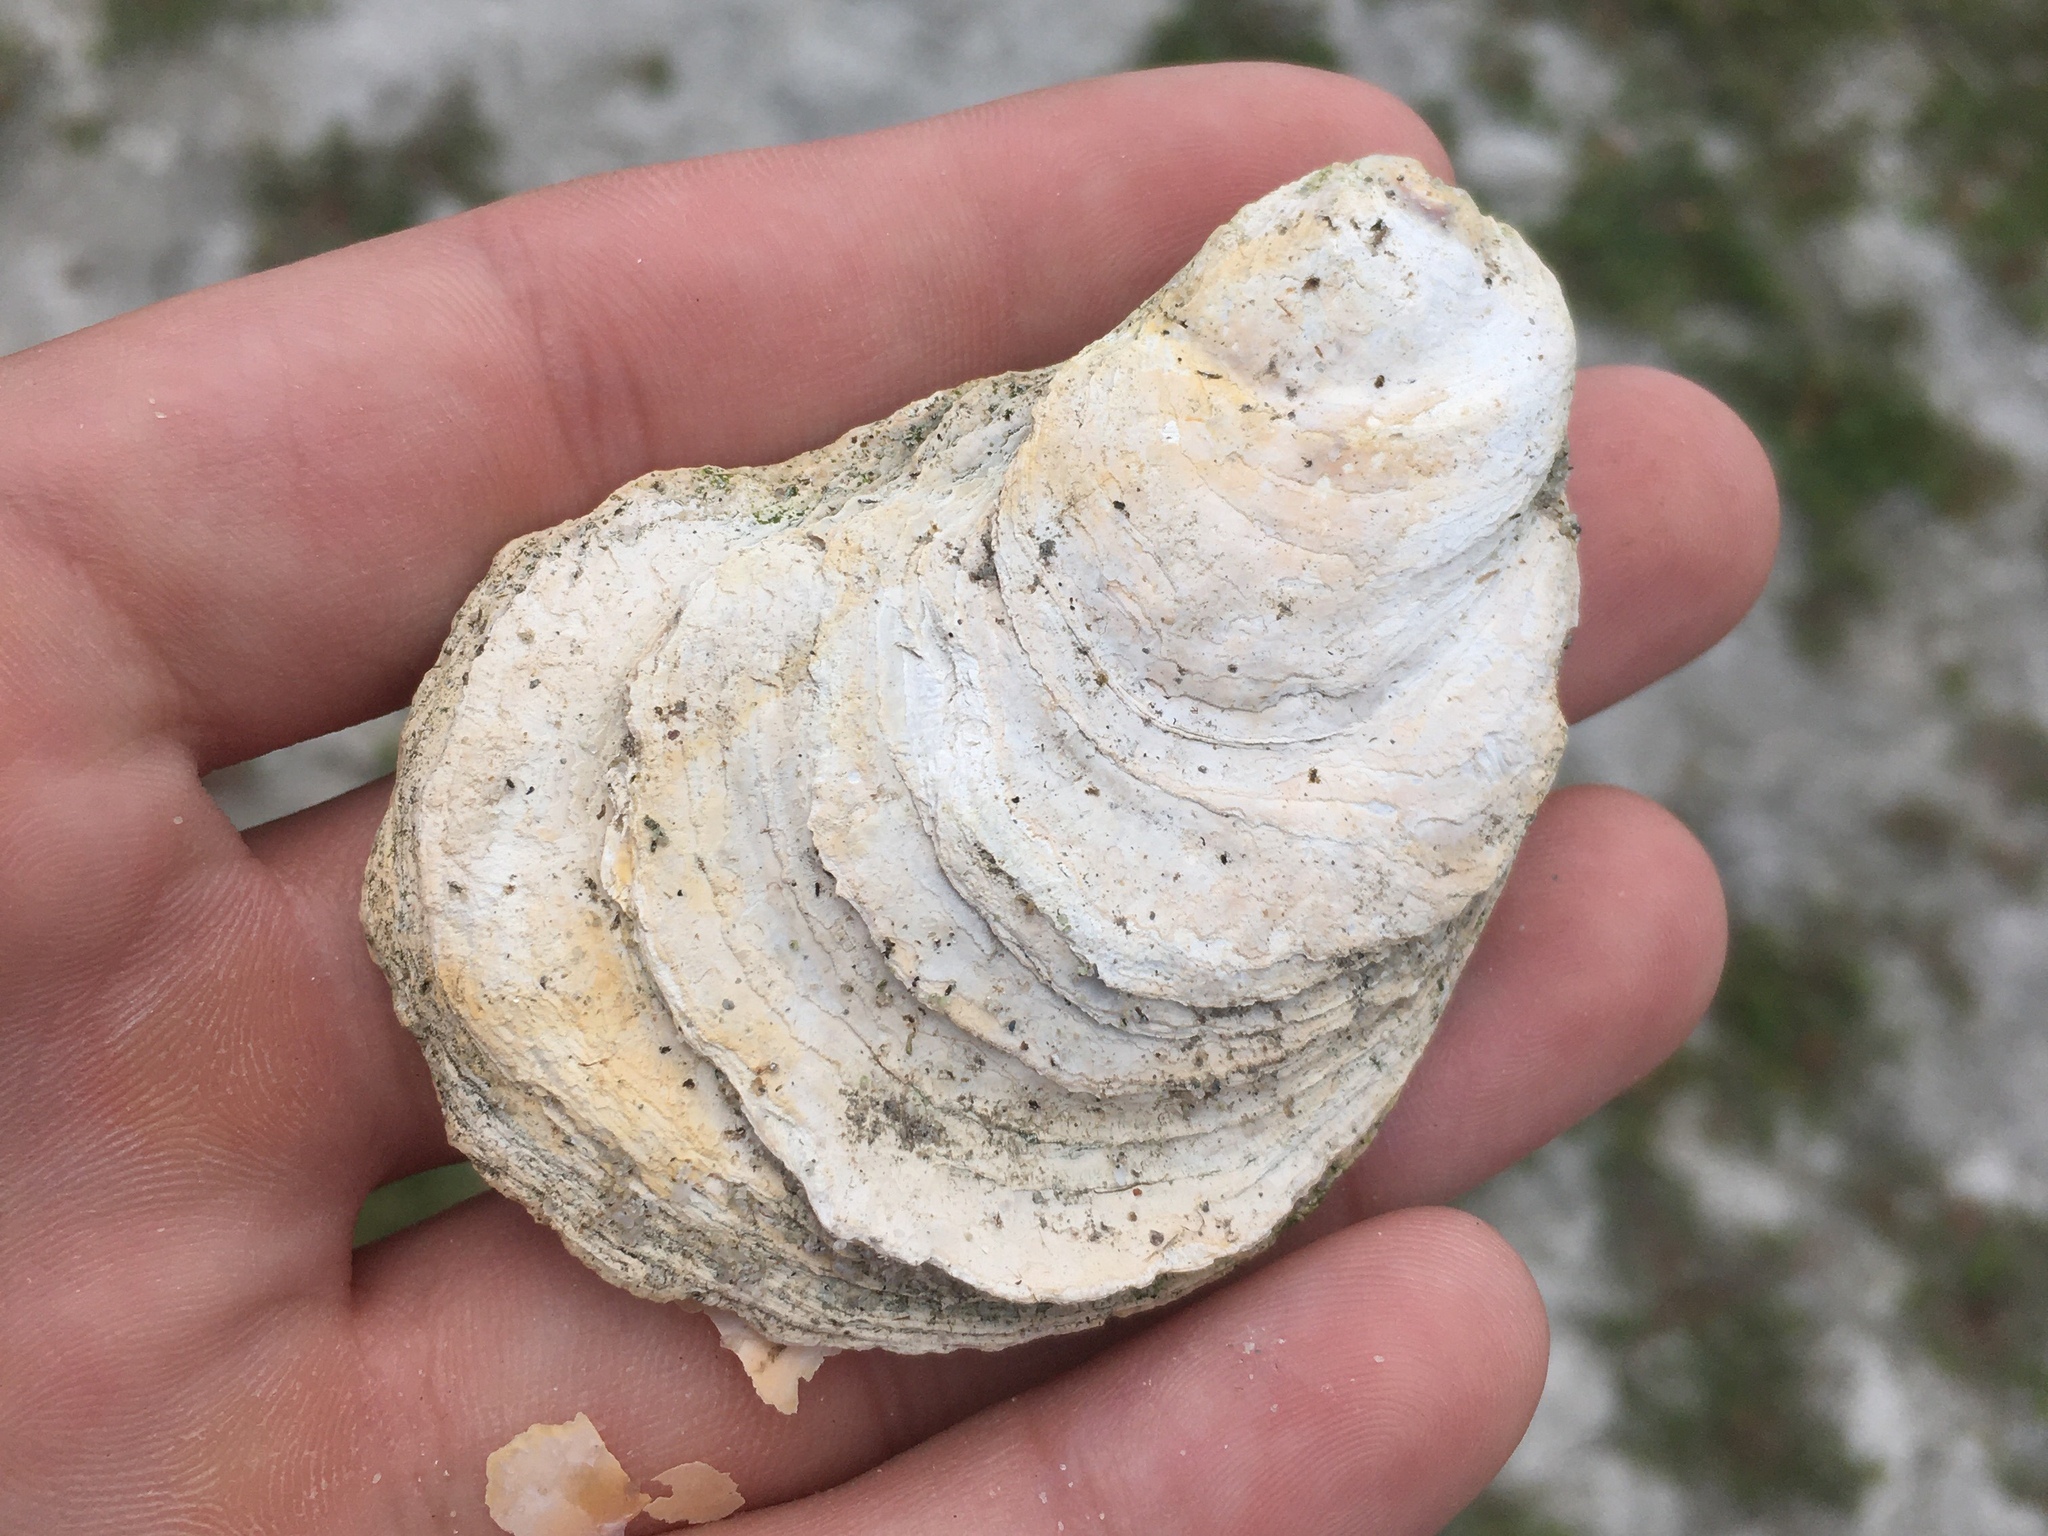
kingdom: Animalia
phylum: Mollusca
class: Bivalvia
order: Ostreida
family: Ostreidae
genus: Crassostrea
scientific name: Crassostrea virginica
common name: American oyster
